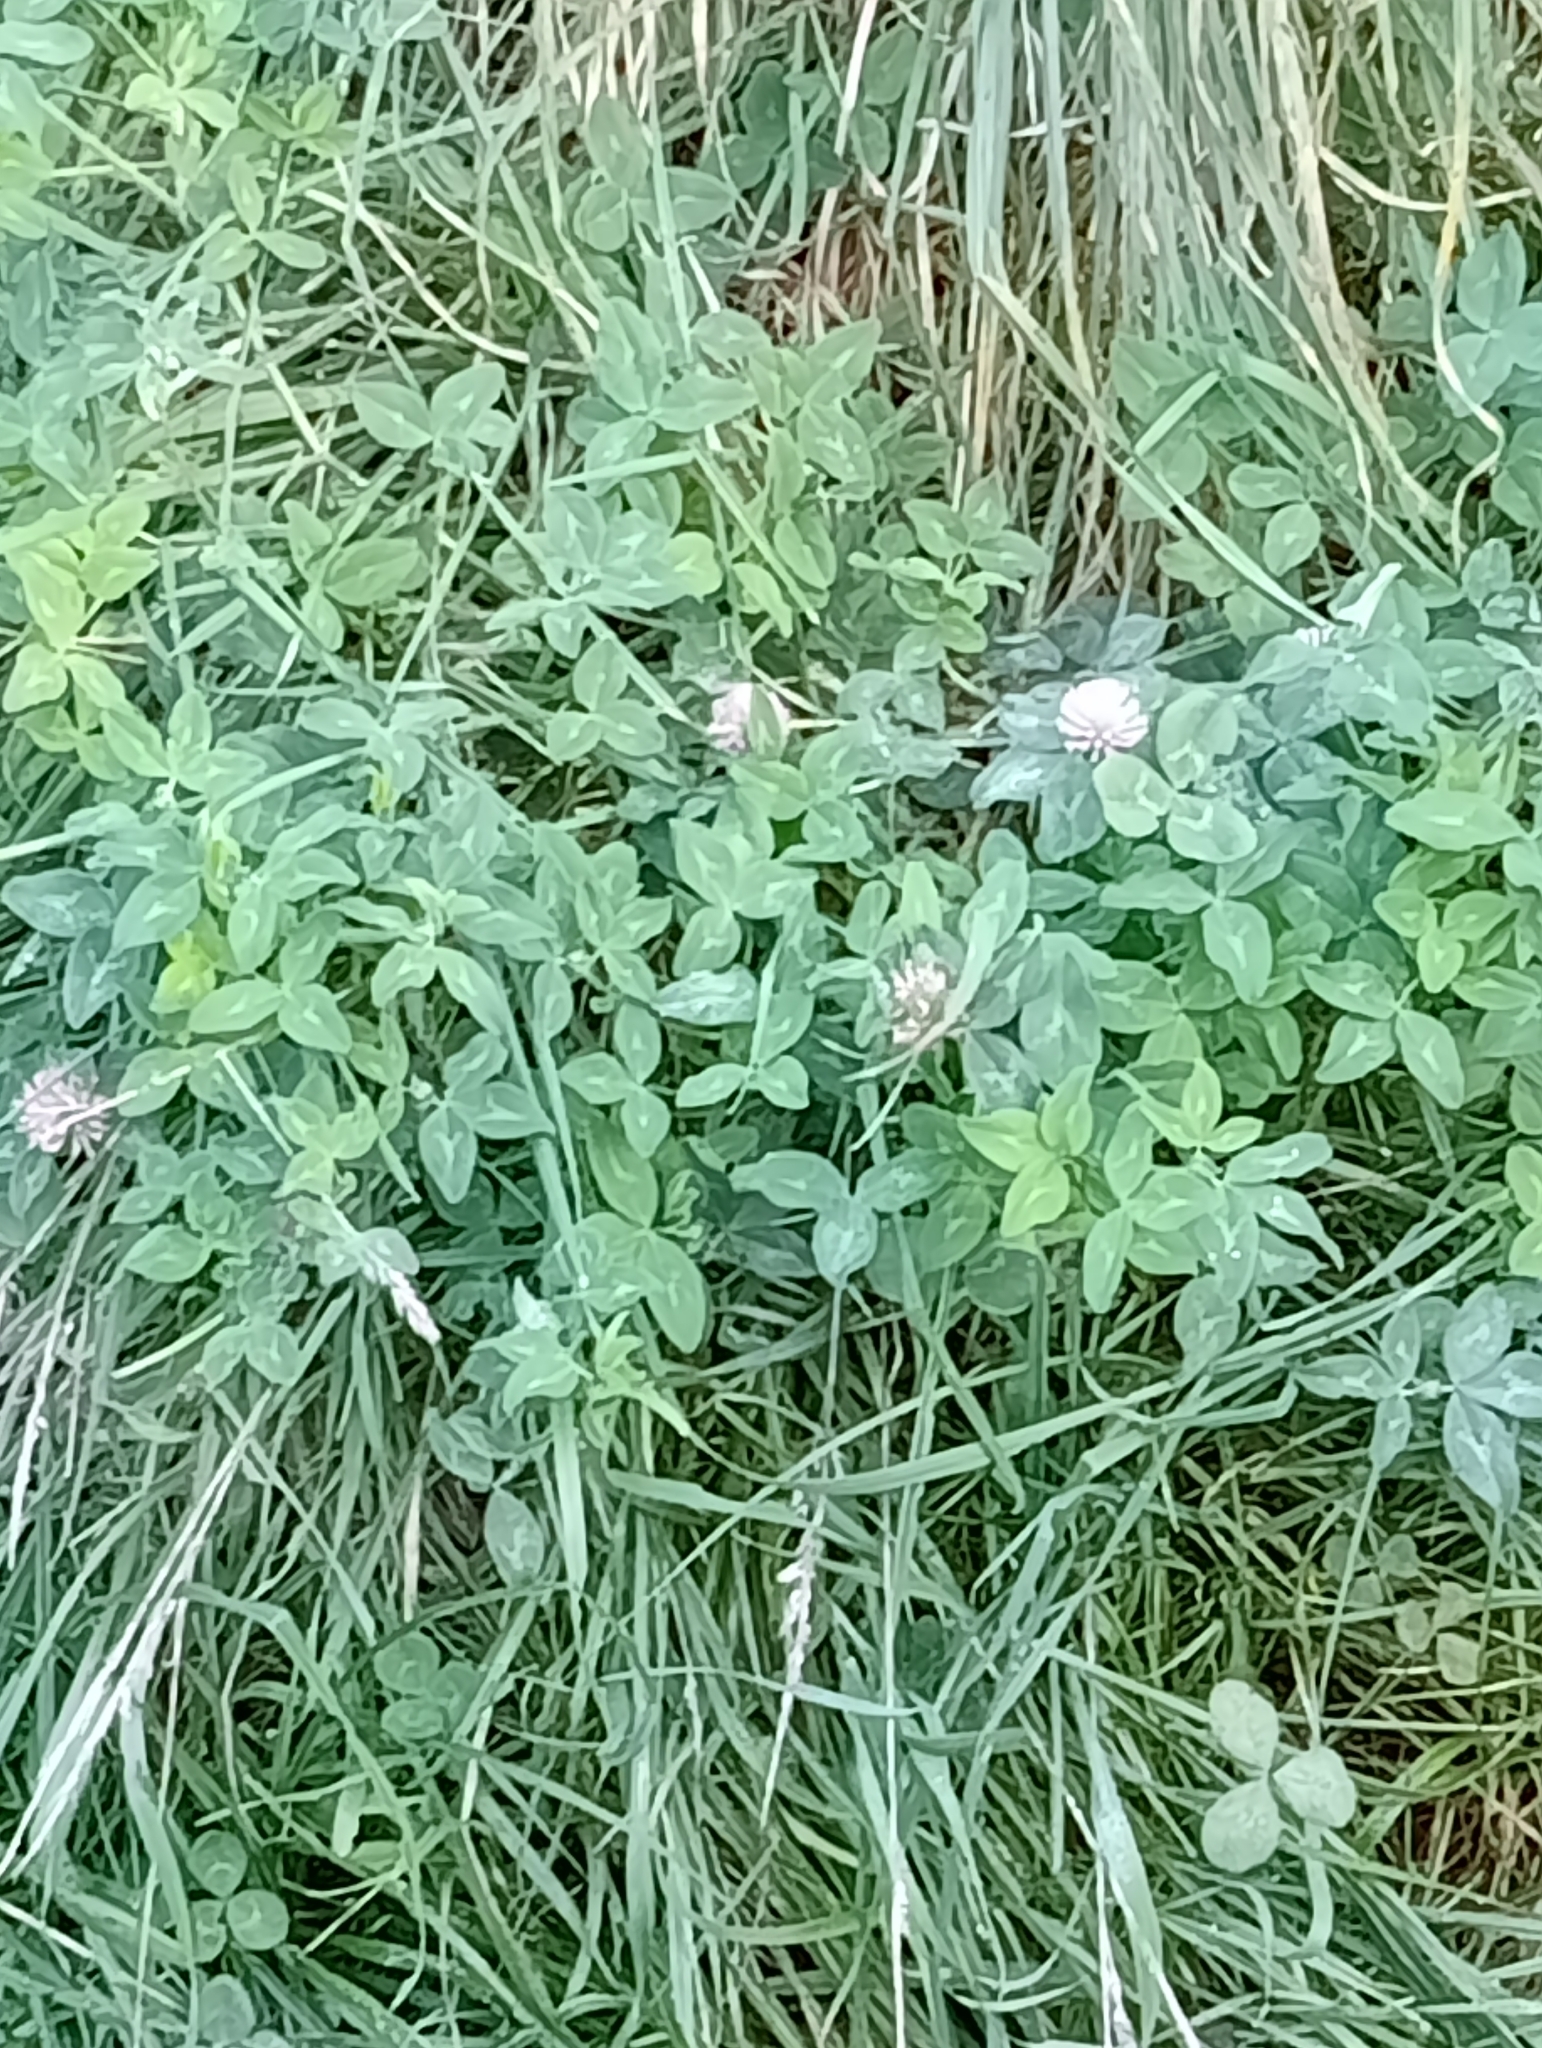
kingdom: Plantae
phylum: Tracheophyta
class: Magnoliopsida
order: Fabales
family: Fabaceae
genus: Trifolium
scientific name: Trifolium pratense
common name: Red clover
